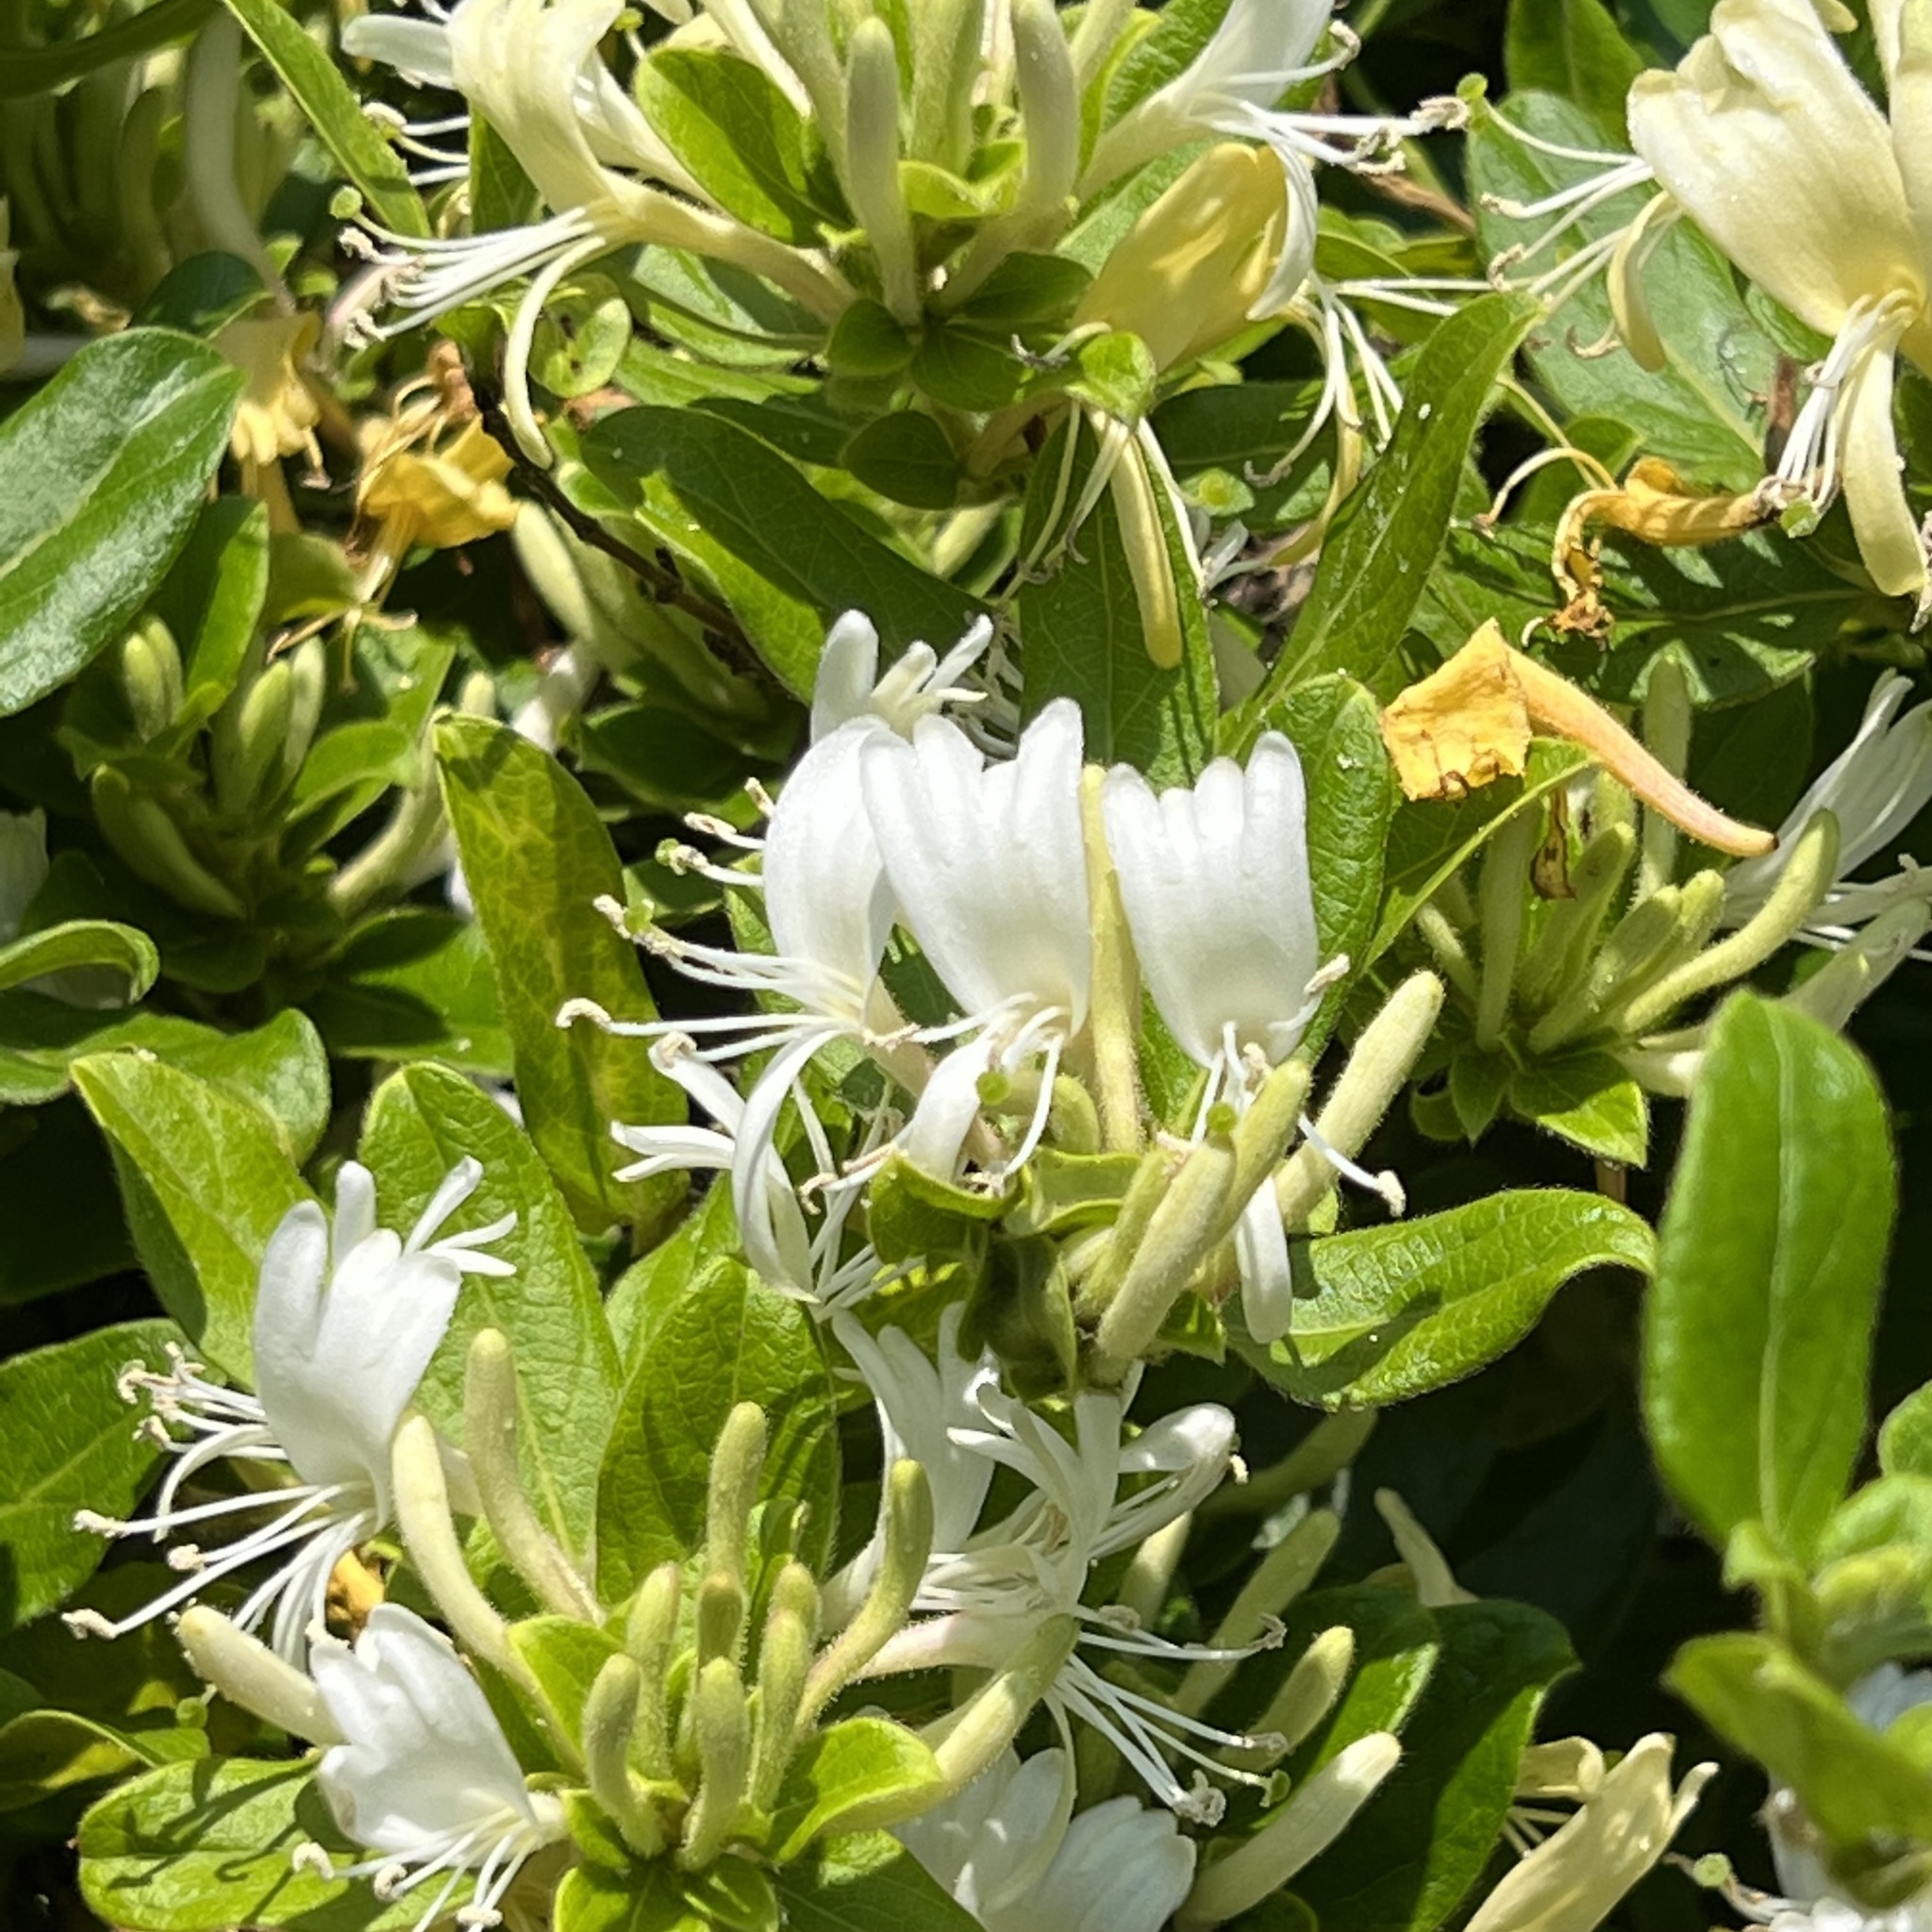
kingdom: Plantae
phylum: Tracheophyta
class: Magnoliopsida
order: Dipsacales
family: Caprifoliaceae
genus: Lonicera
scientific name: Lonicera japonica
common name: Japanese honeysuckle
